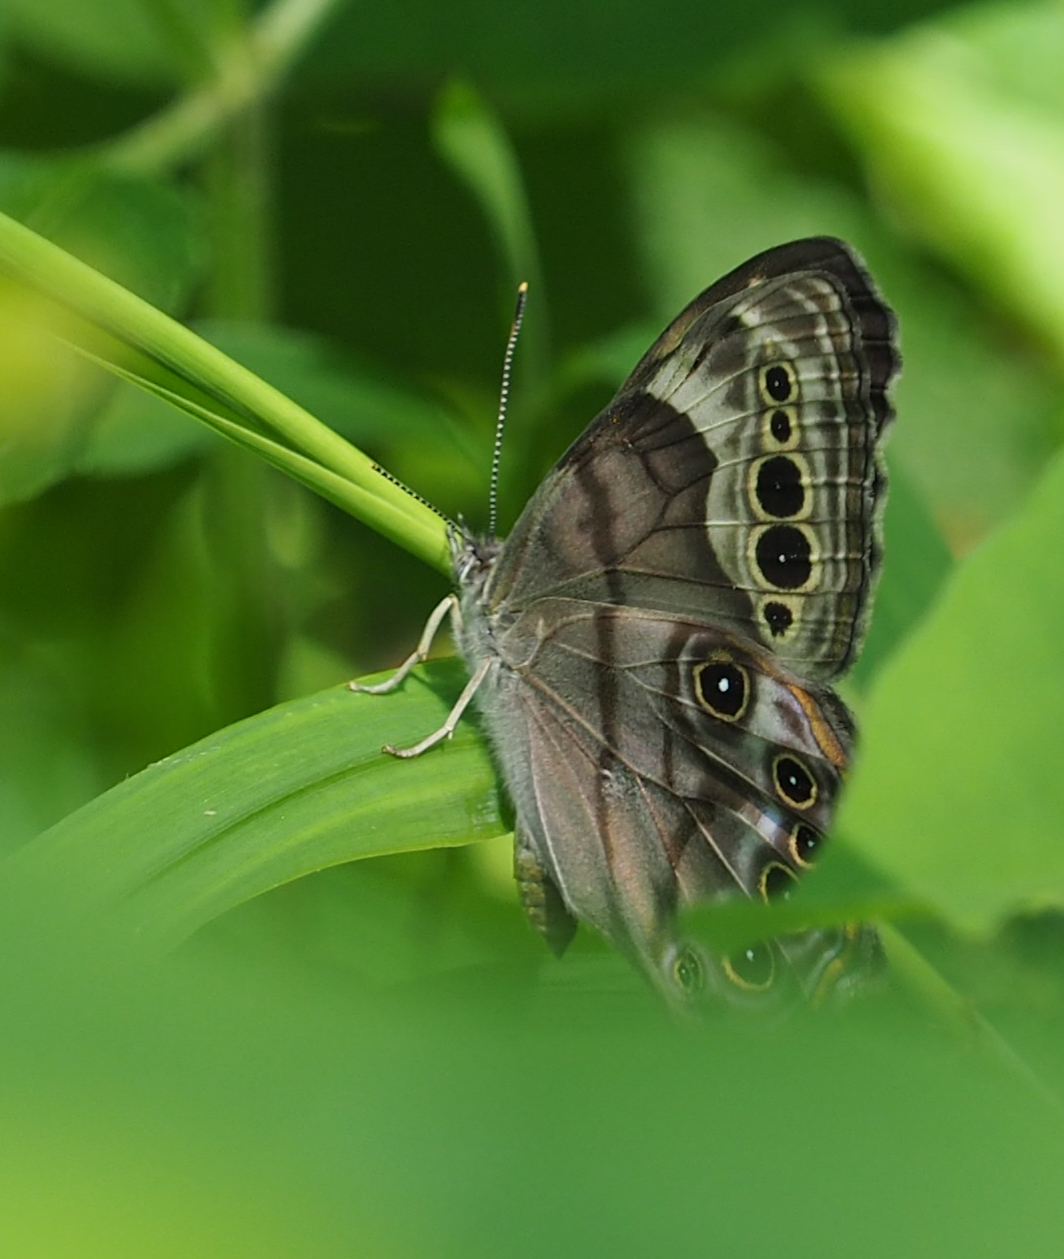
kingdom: Animalia
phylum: Arthropoda
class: Insecta
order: Lepidoptera
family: Nymphalidae
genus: Lethe
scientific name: Lethe anthedon
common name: Northern pearly-eye
